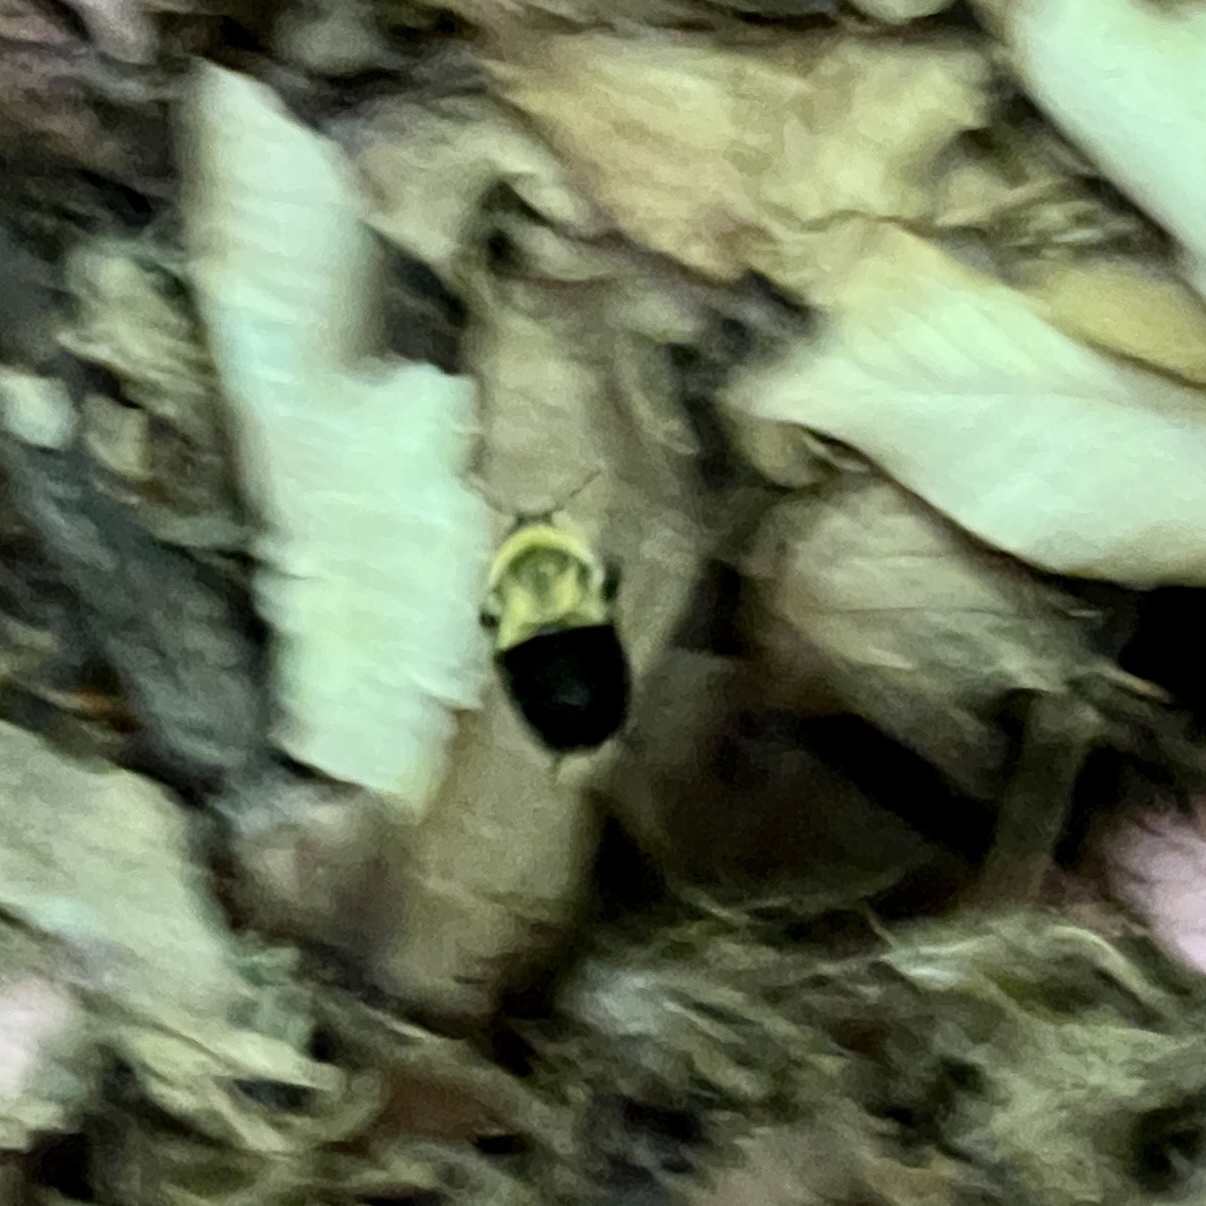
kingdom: Animalia
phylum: Arthropoda
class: Insecta
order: Hymenoptera
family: Apidae
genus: Bombus
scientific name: Bombus impatiens
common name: Common eastern bumble bee
